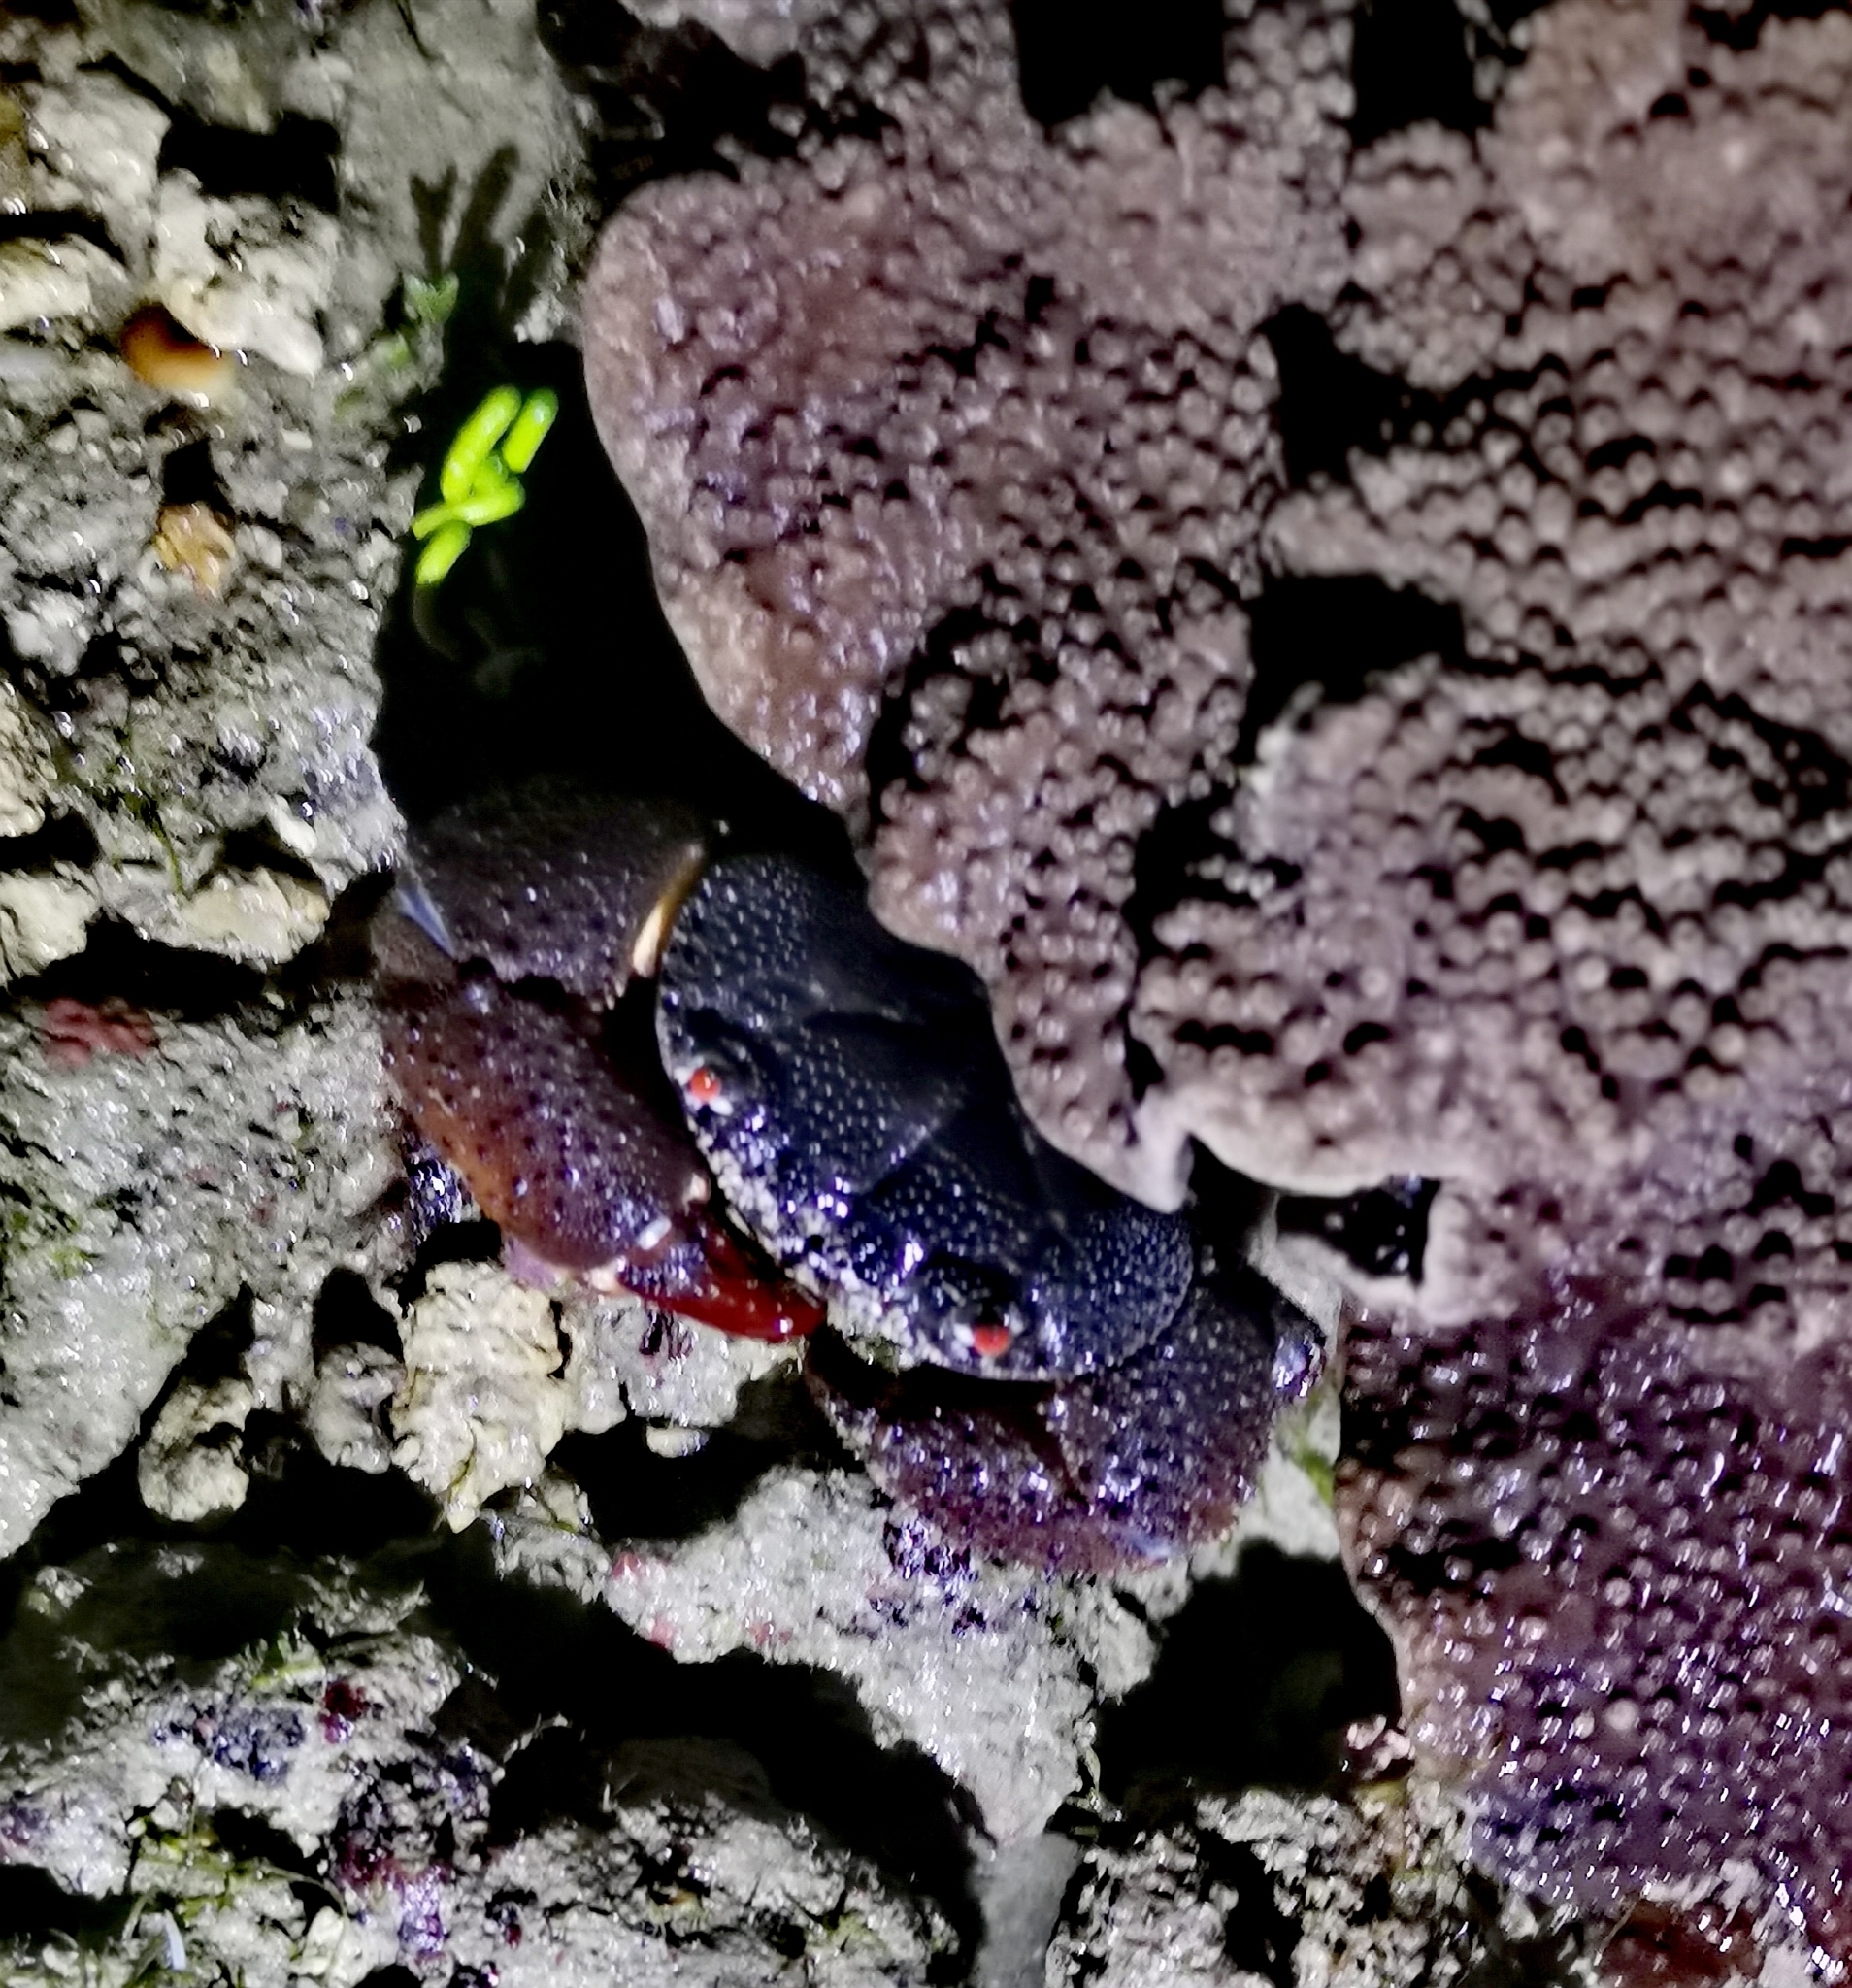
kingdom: Animalia
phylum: Arthropoda
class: Malacostraca
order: Decapoda
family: Eriphiidae
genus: Eriphia
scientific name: Eriphia ferox
